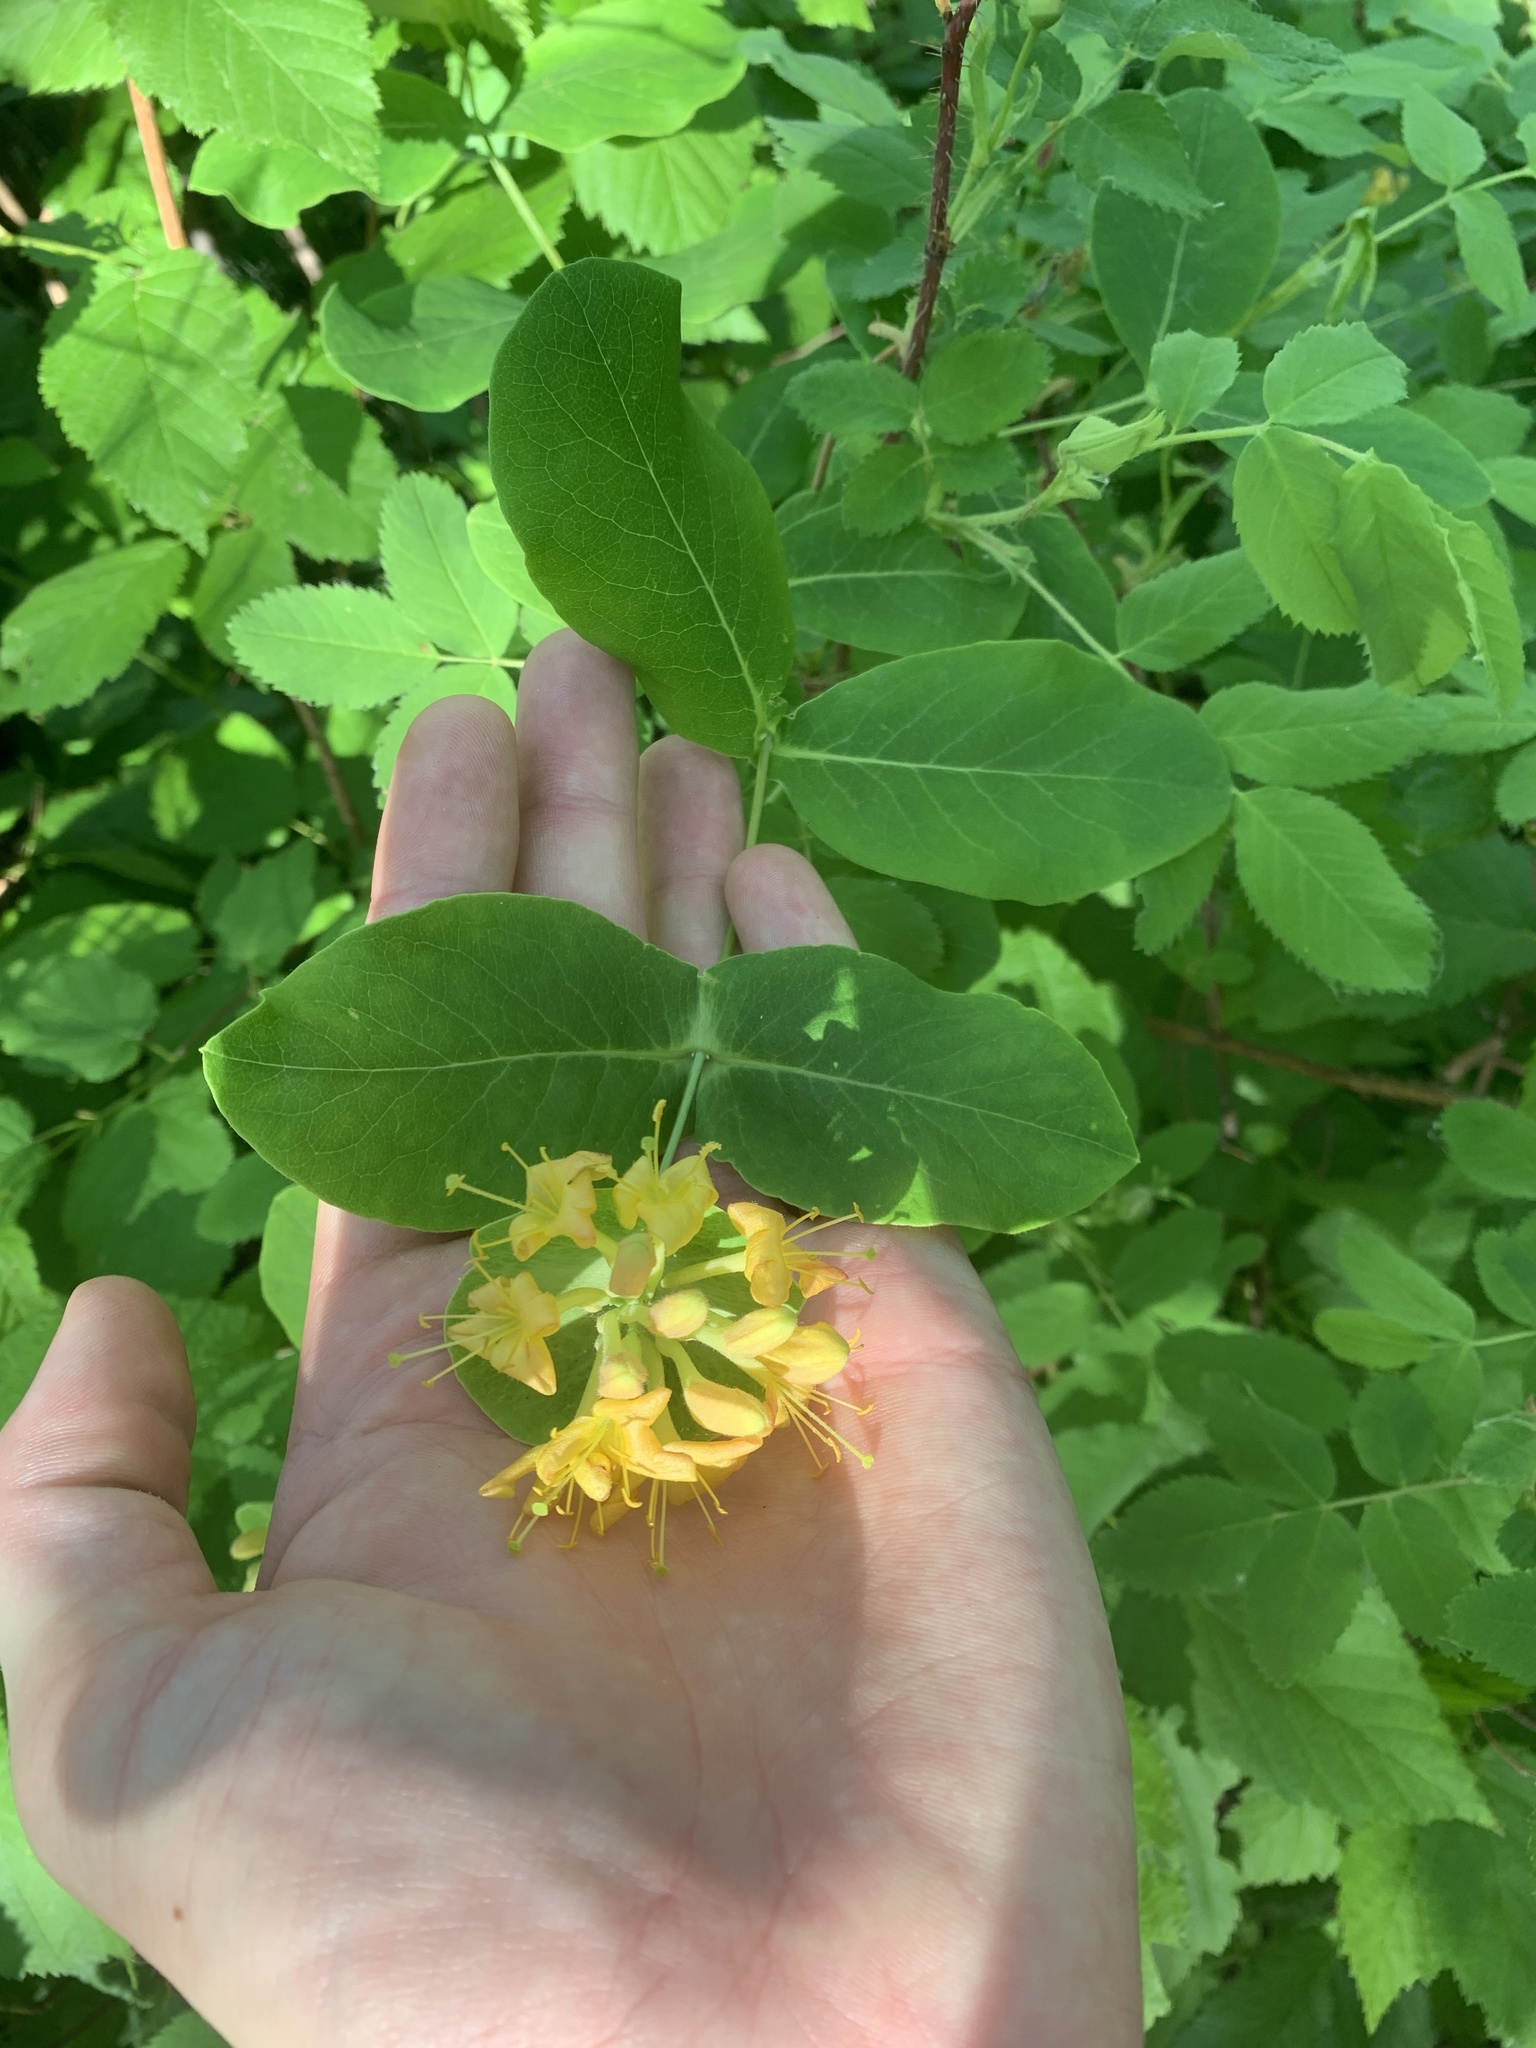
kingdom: Plantae
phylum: Tracheophyta
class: Magnoliopsida
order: Dipsacales
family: Caprifoliaceae
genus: Lonicera
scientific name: Lonicera dioica
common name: Limber honeysuckle
